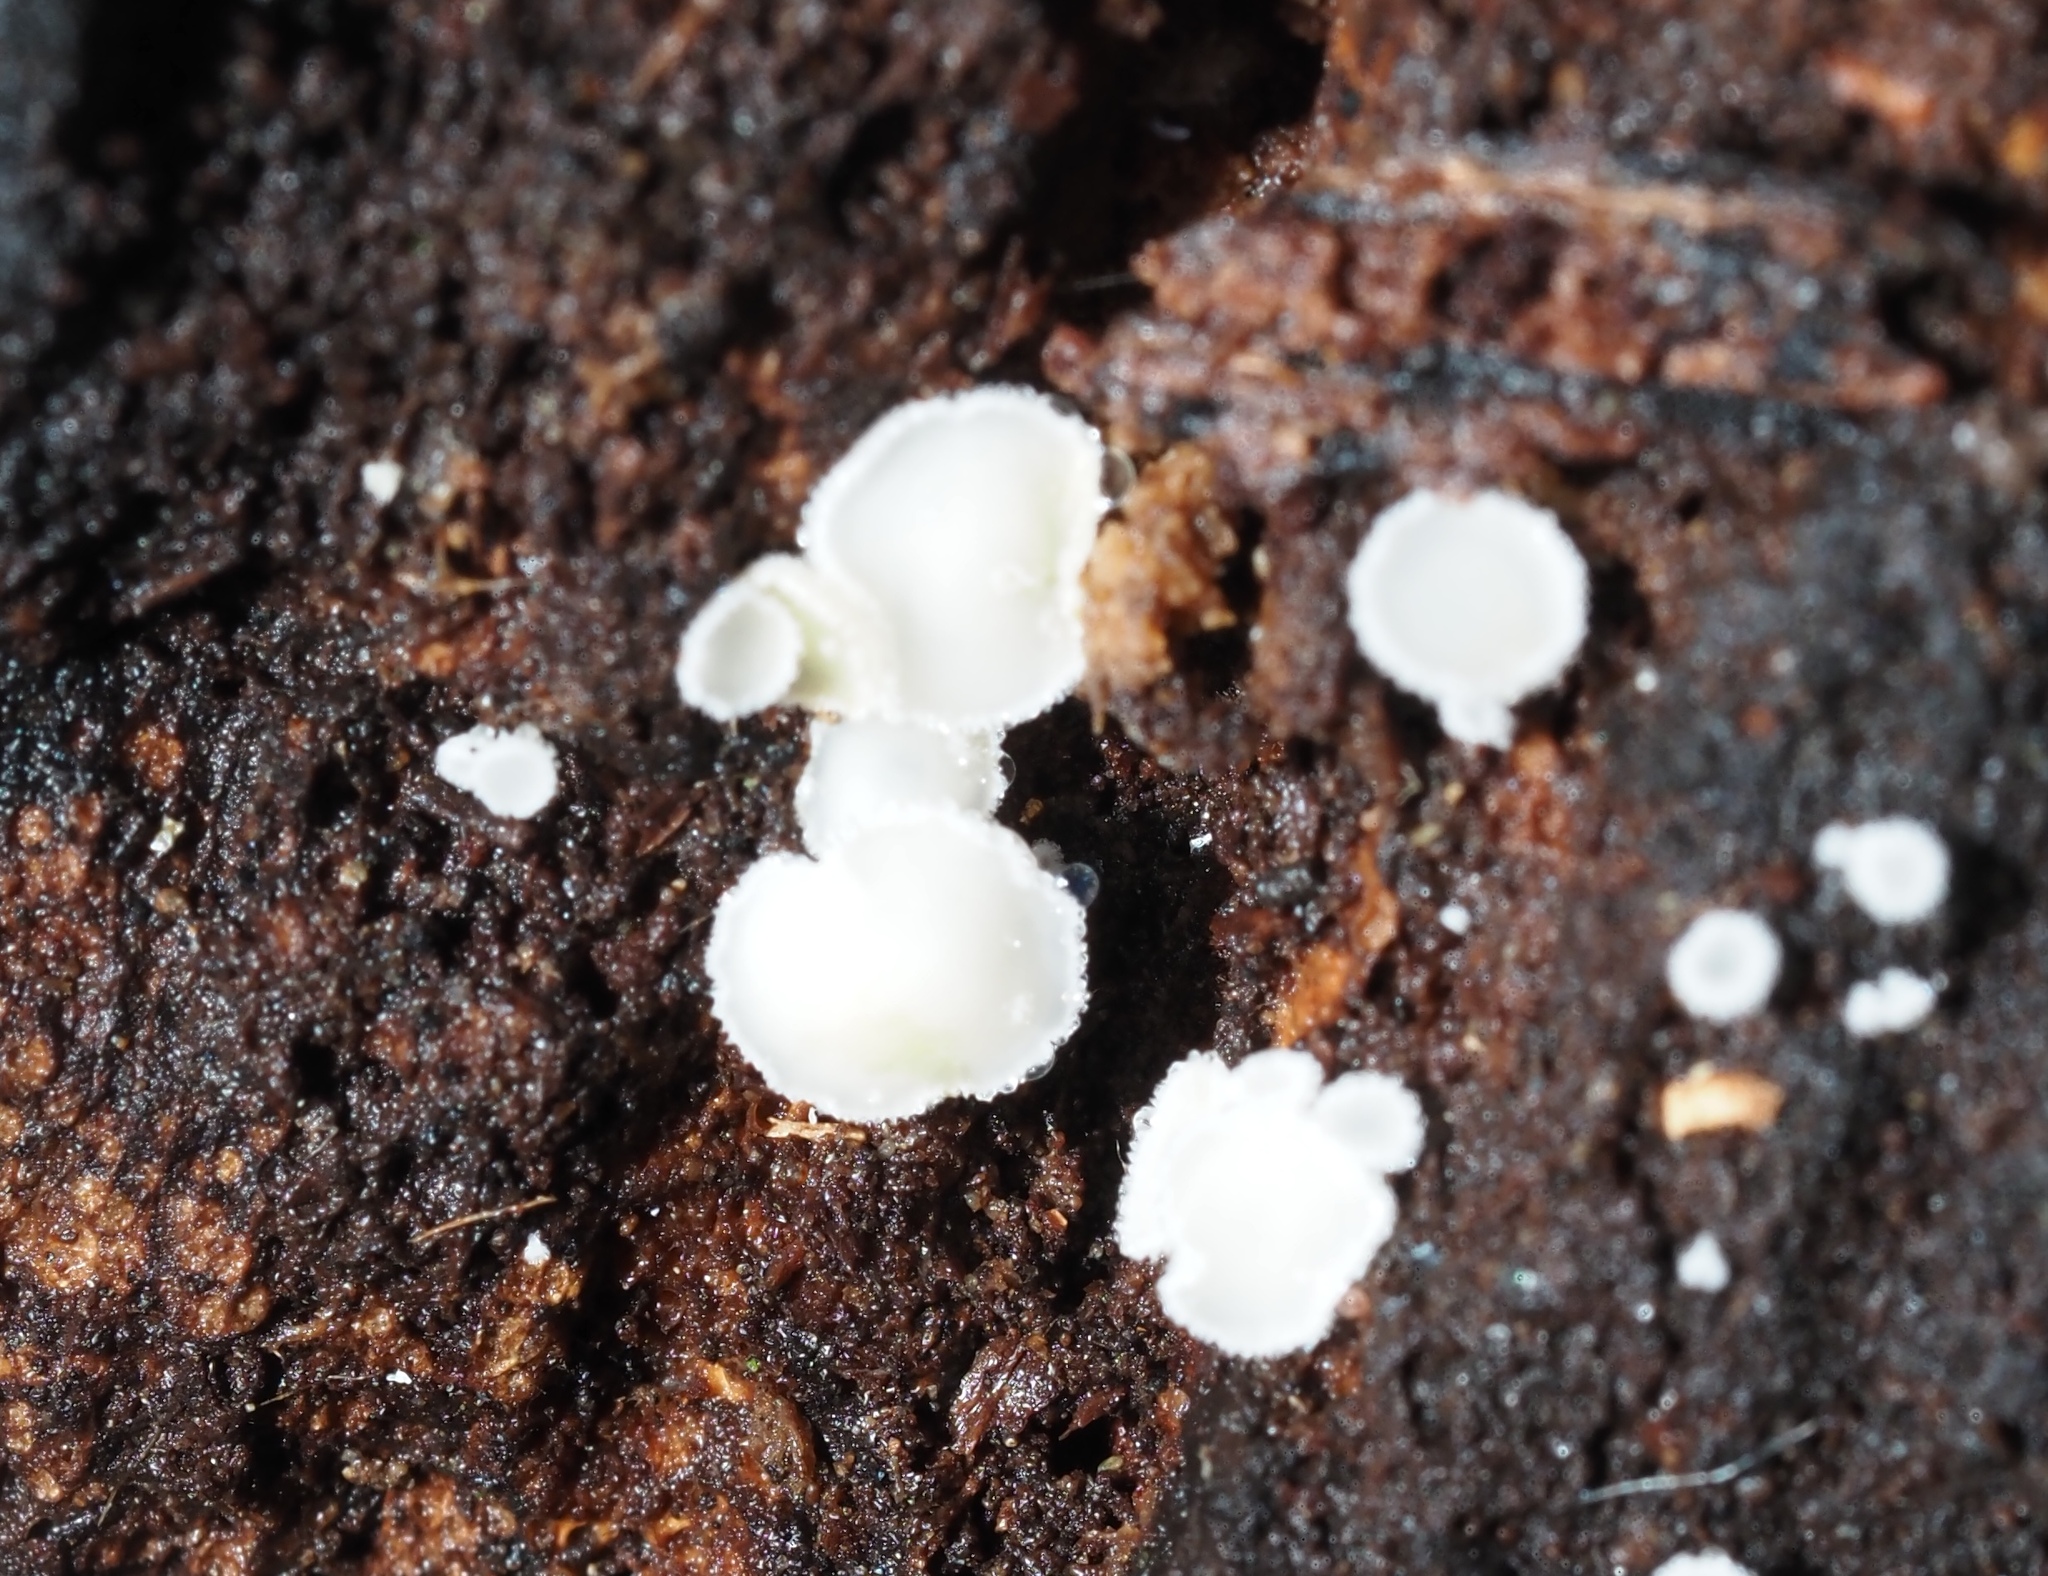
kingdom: Fungi
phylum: Ascomycota
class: Leotiomycetes
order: Helotiales
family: Lachnaceae
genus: Lachnum
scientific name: Lachnum virgineum
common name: Snowy disco
